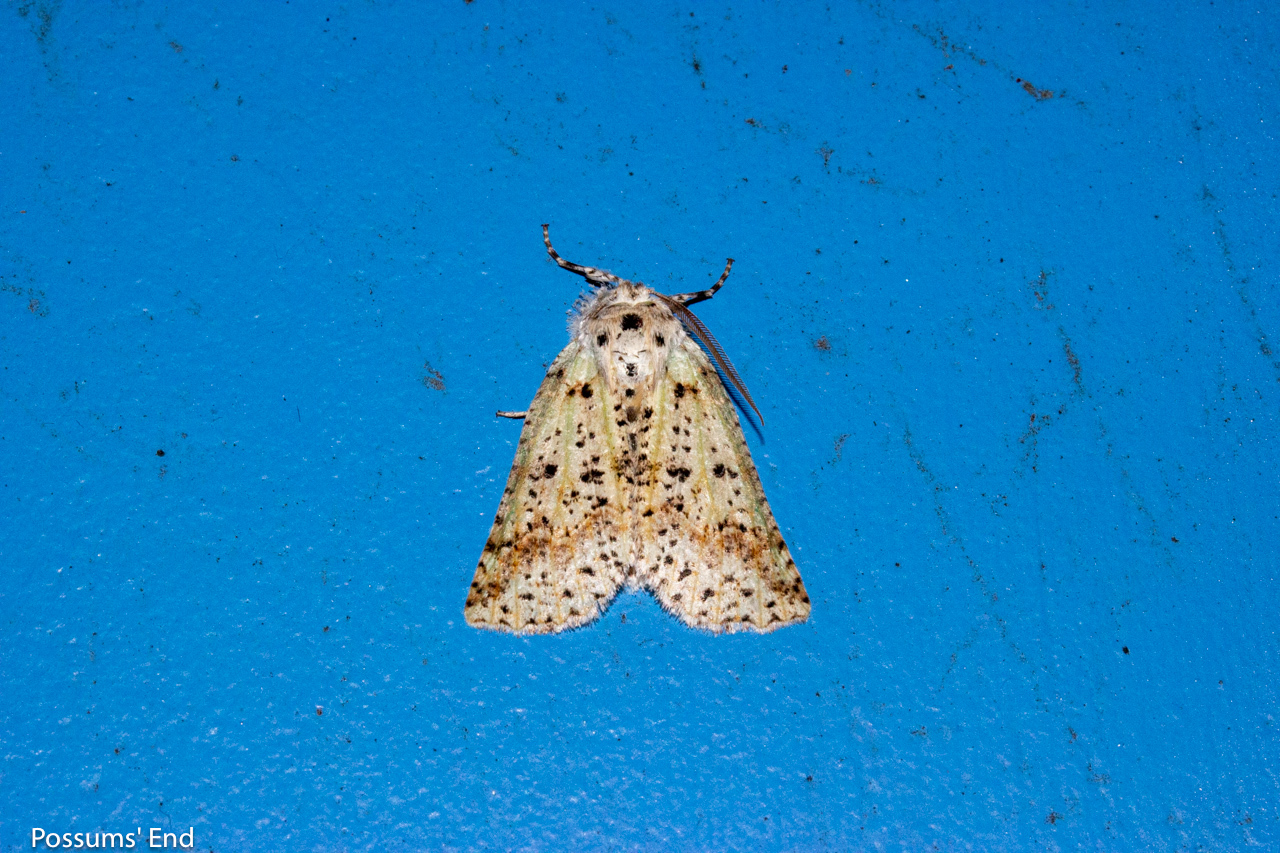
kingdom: Animalia
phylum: Arthropoda
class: Insecta
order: Lepidoptera
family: Geometridae
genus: Declana
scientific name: Declana floccosa
